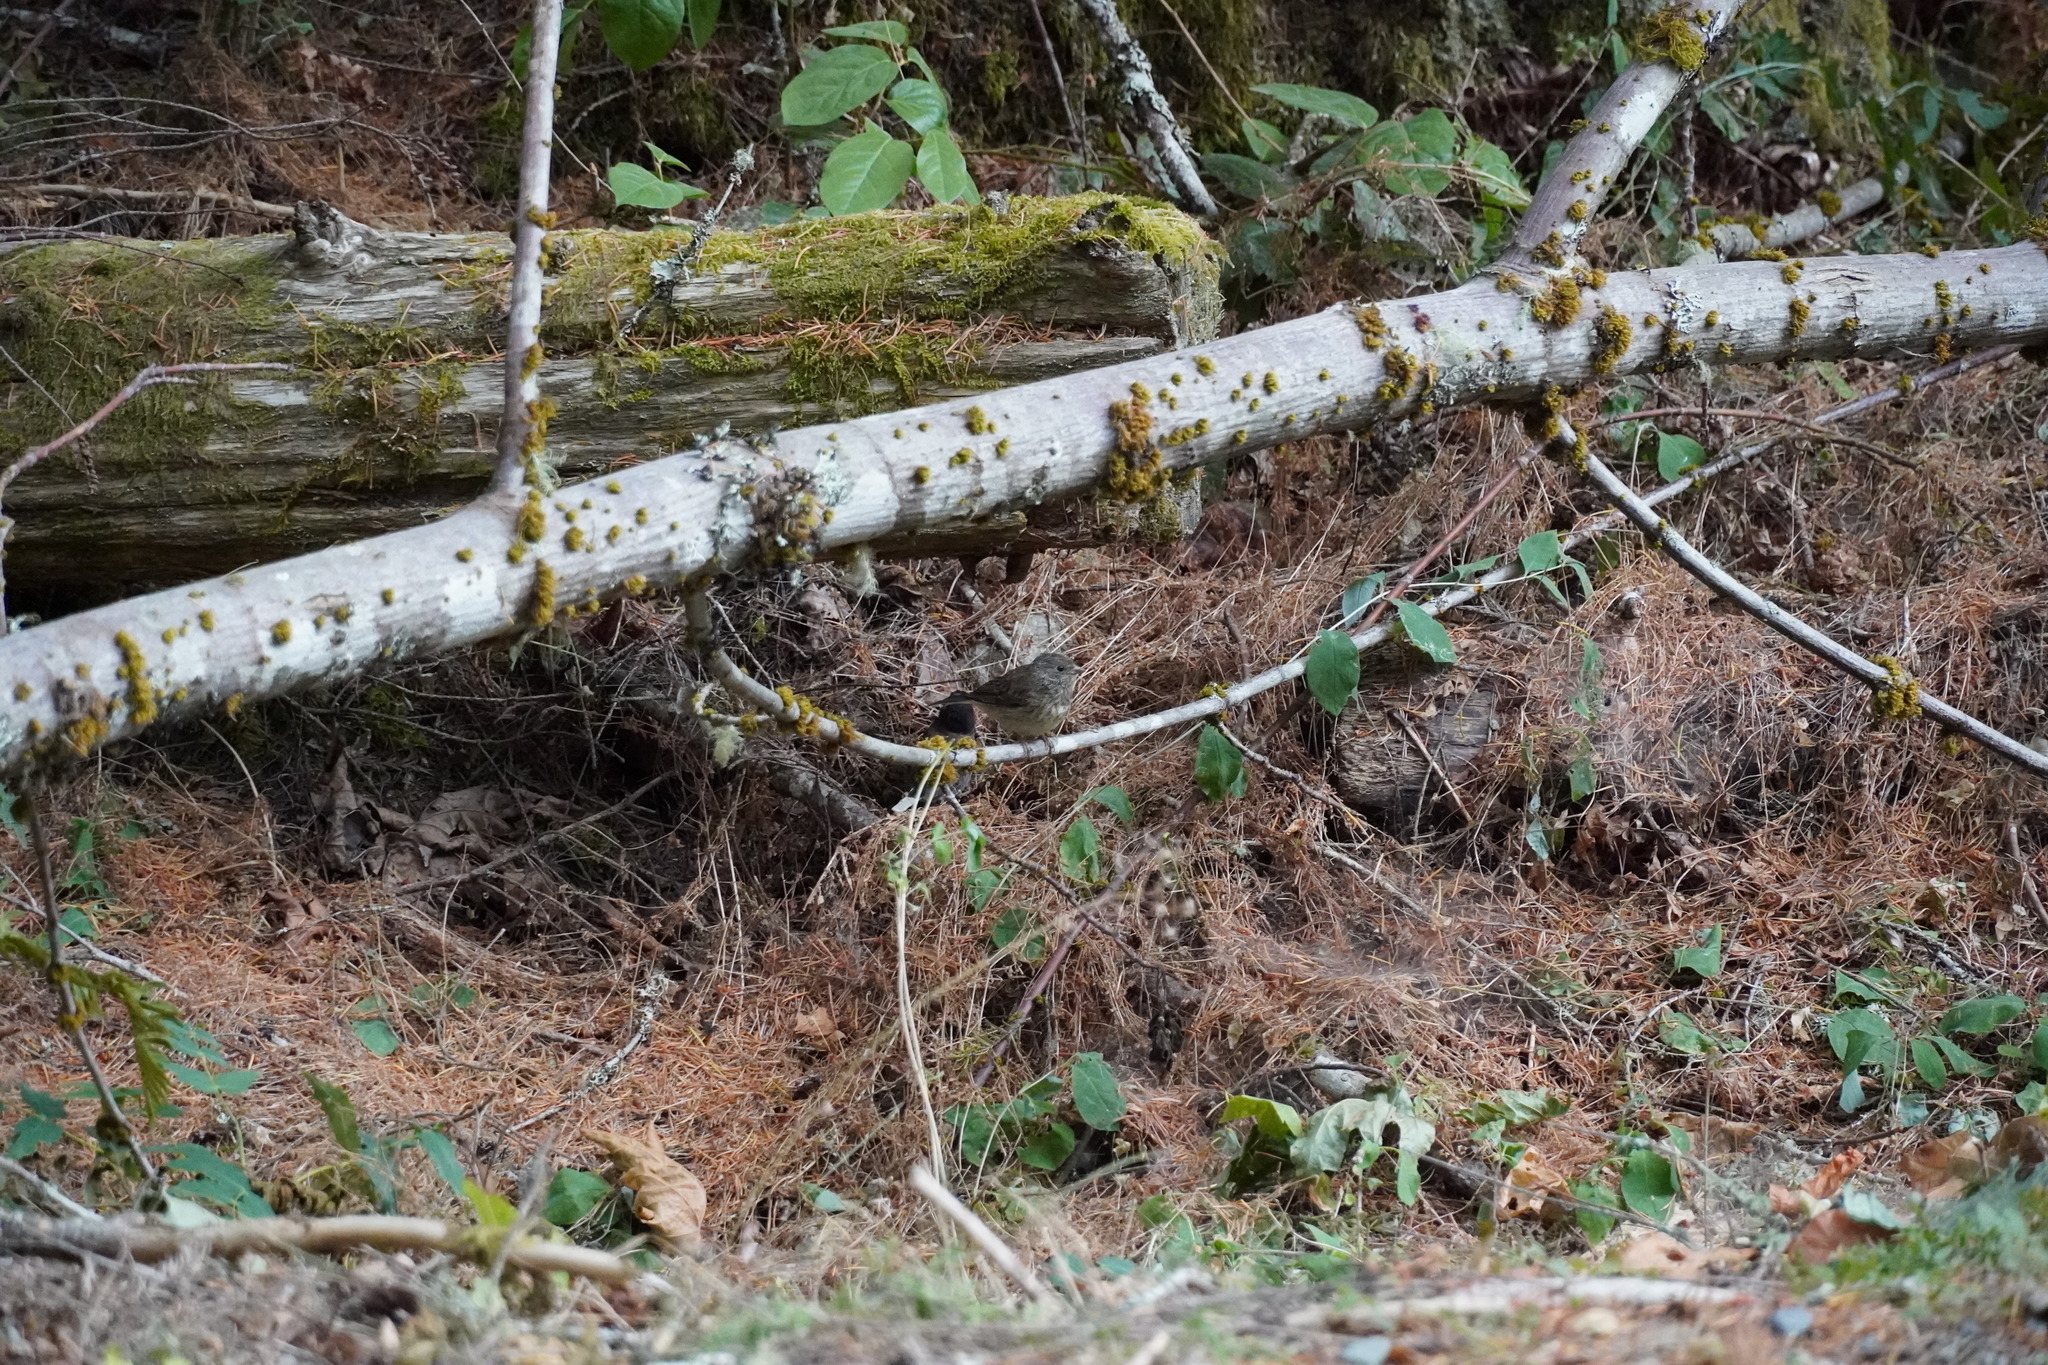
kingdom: Animalia
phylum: Chordata
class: Aves
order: Passeriformes
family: Passerellidae
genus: Junco
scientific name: Junco hyemalis
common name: Dark-eyed junco
